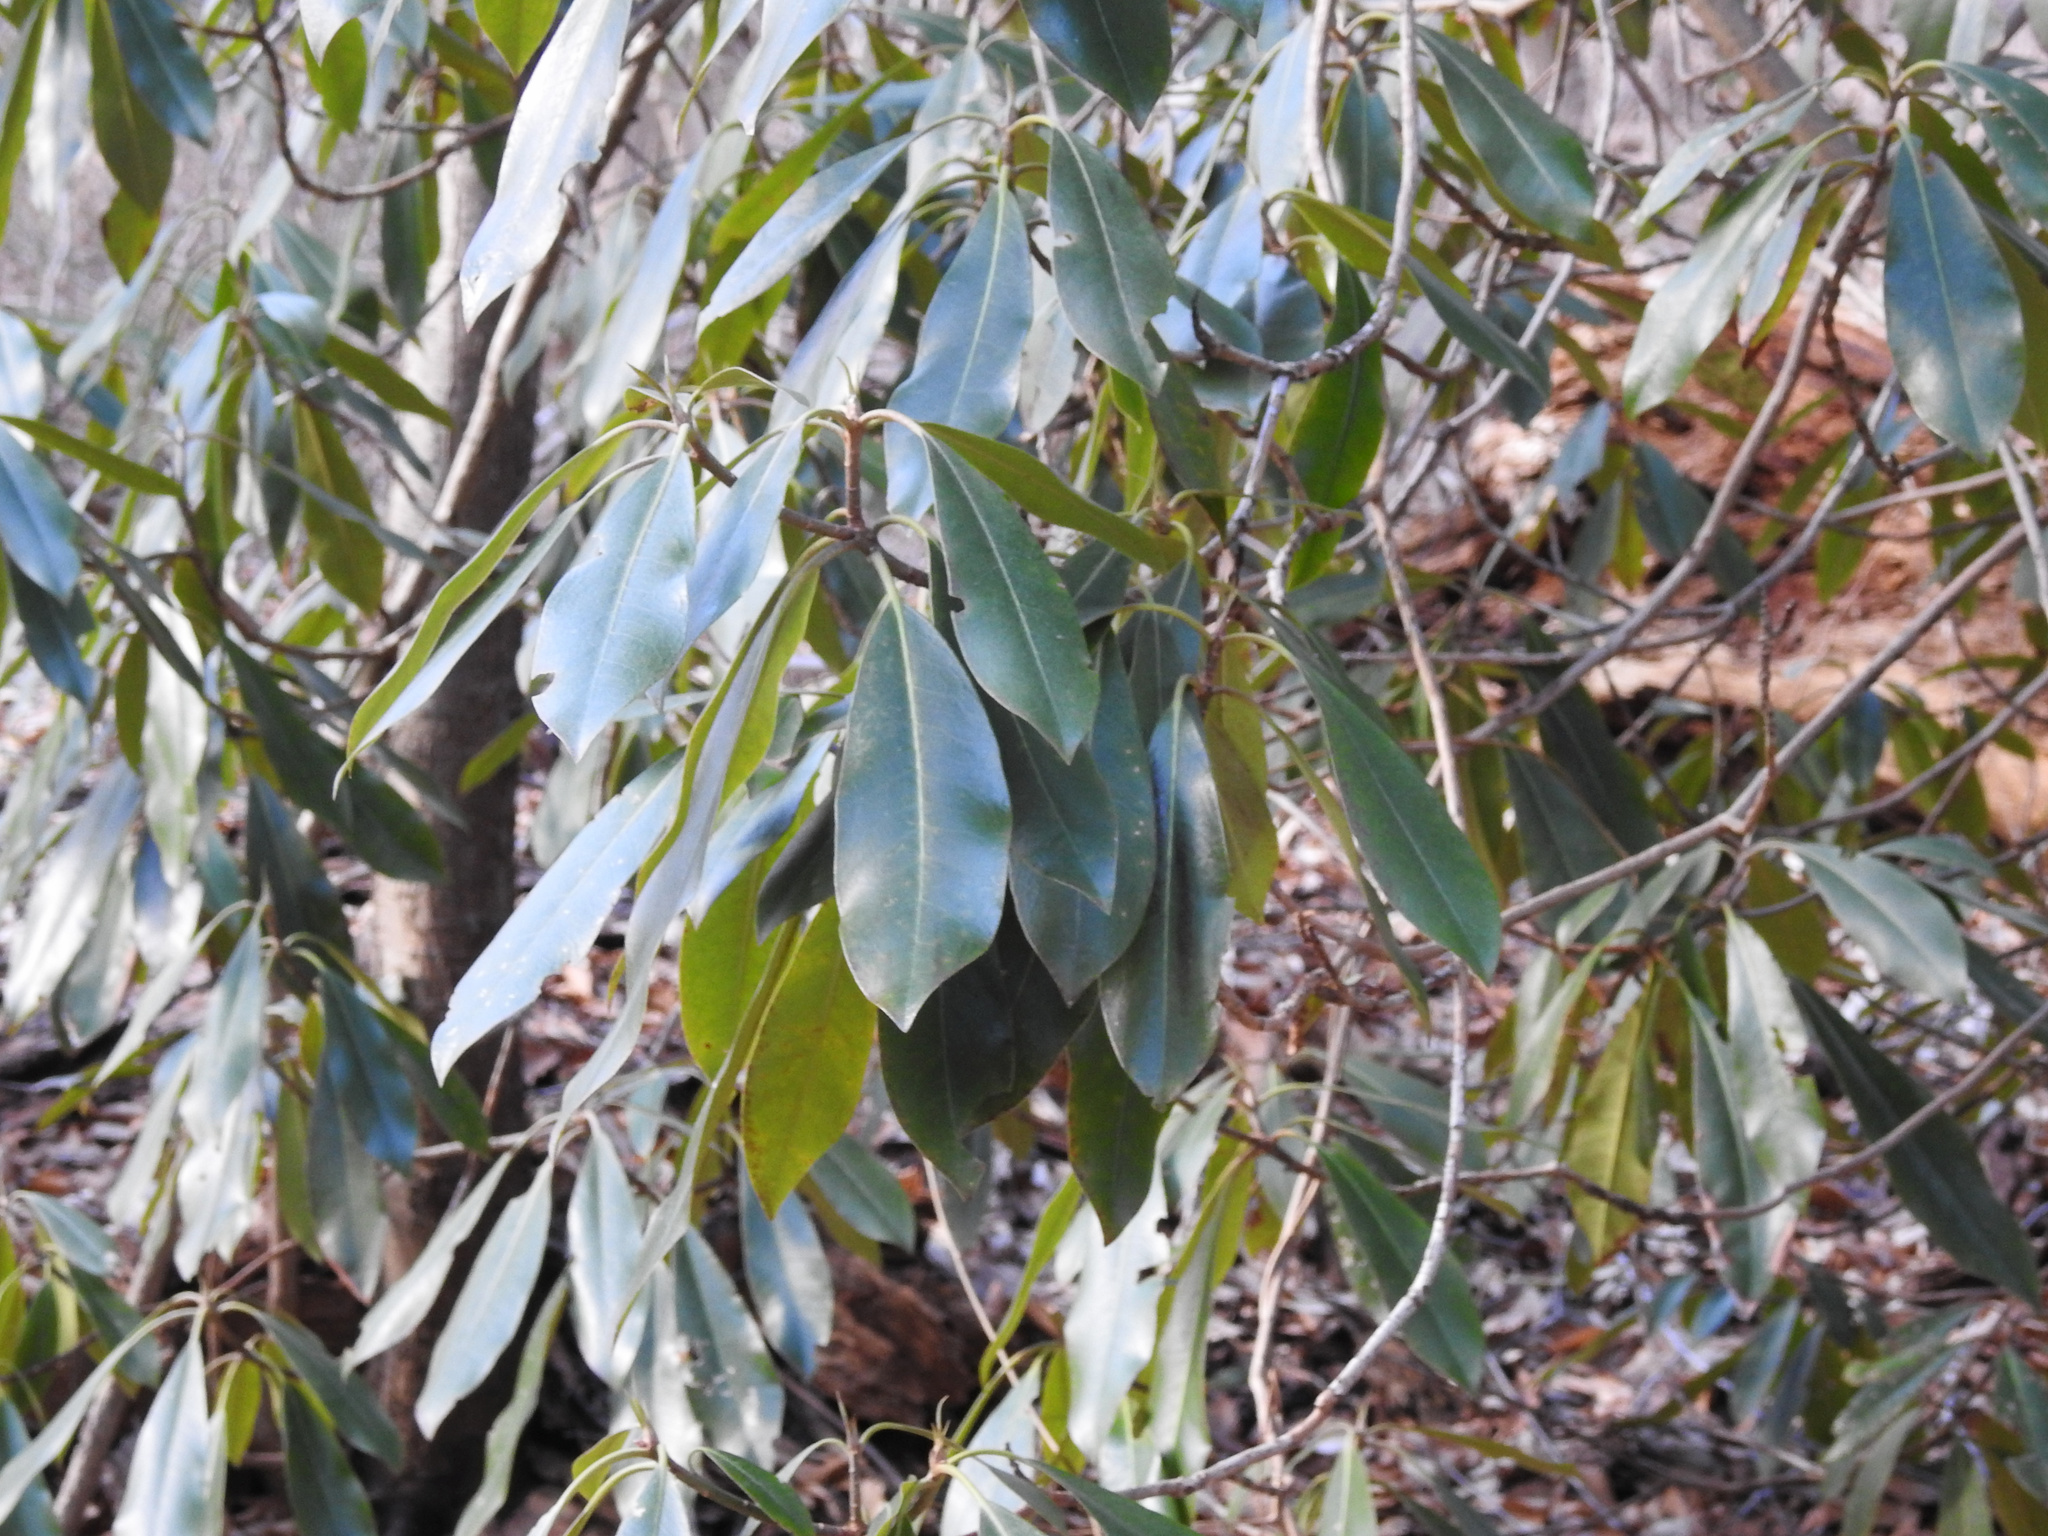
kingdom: Plantae
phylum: Tracheophyta
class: Magnoliopsida
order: Ericales
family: Ericaceae
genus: Rhododendron
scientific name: Rhododendron maximum
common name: Great rhododendron
